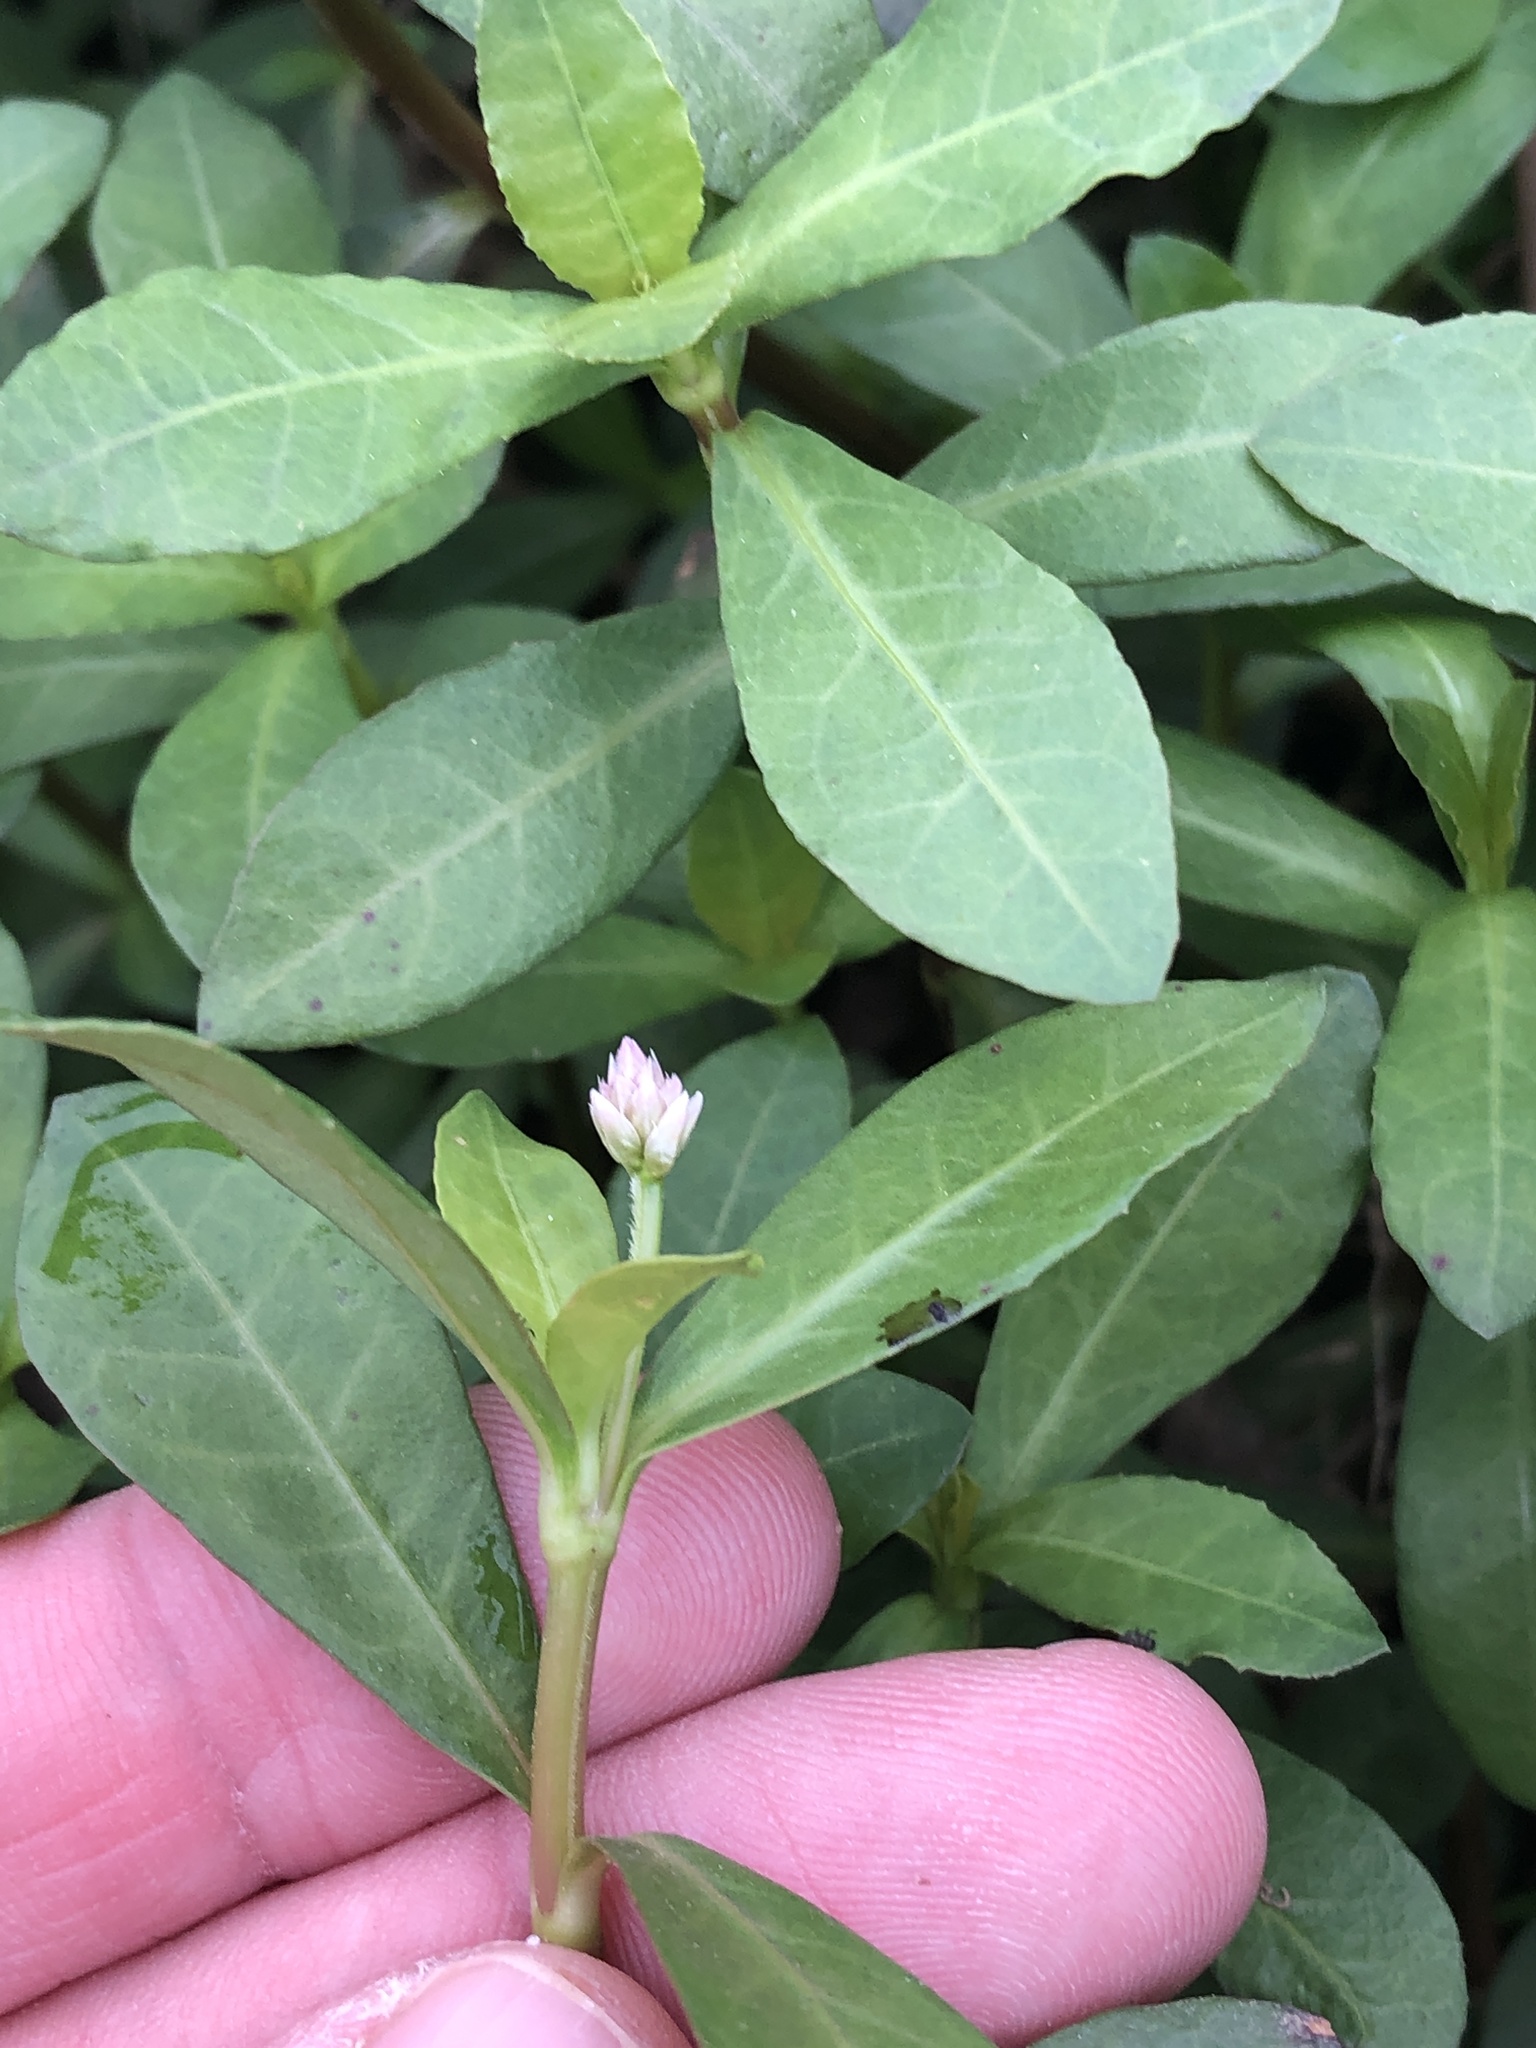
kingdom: Plantae
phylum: Tracheophyta
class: Magnoliopsida
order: Caryophyllales
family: Amaranthaceae
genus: Alternanthera
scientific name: Alternanthera philoxeroides
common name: Alligatorweed
